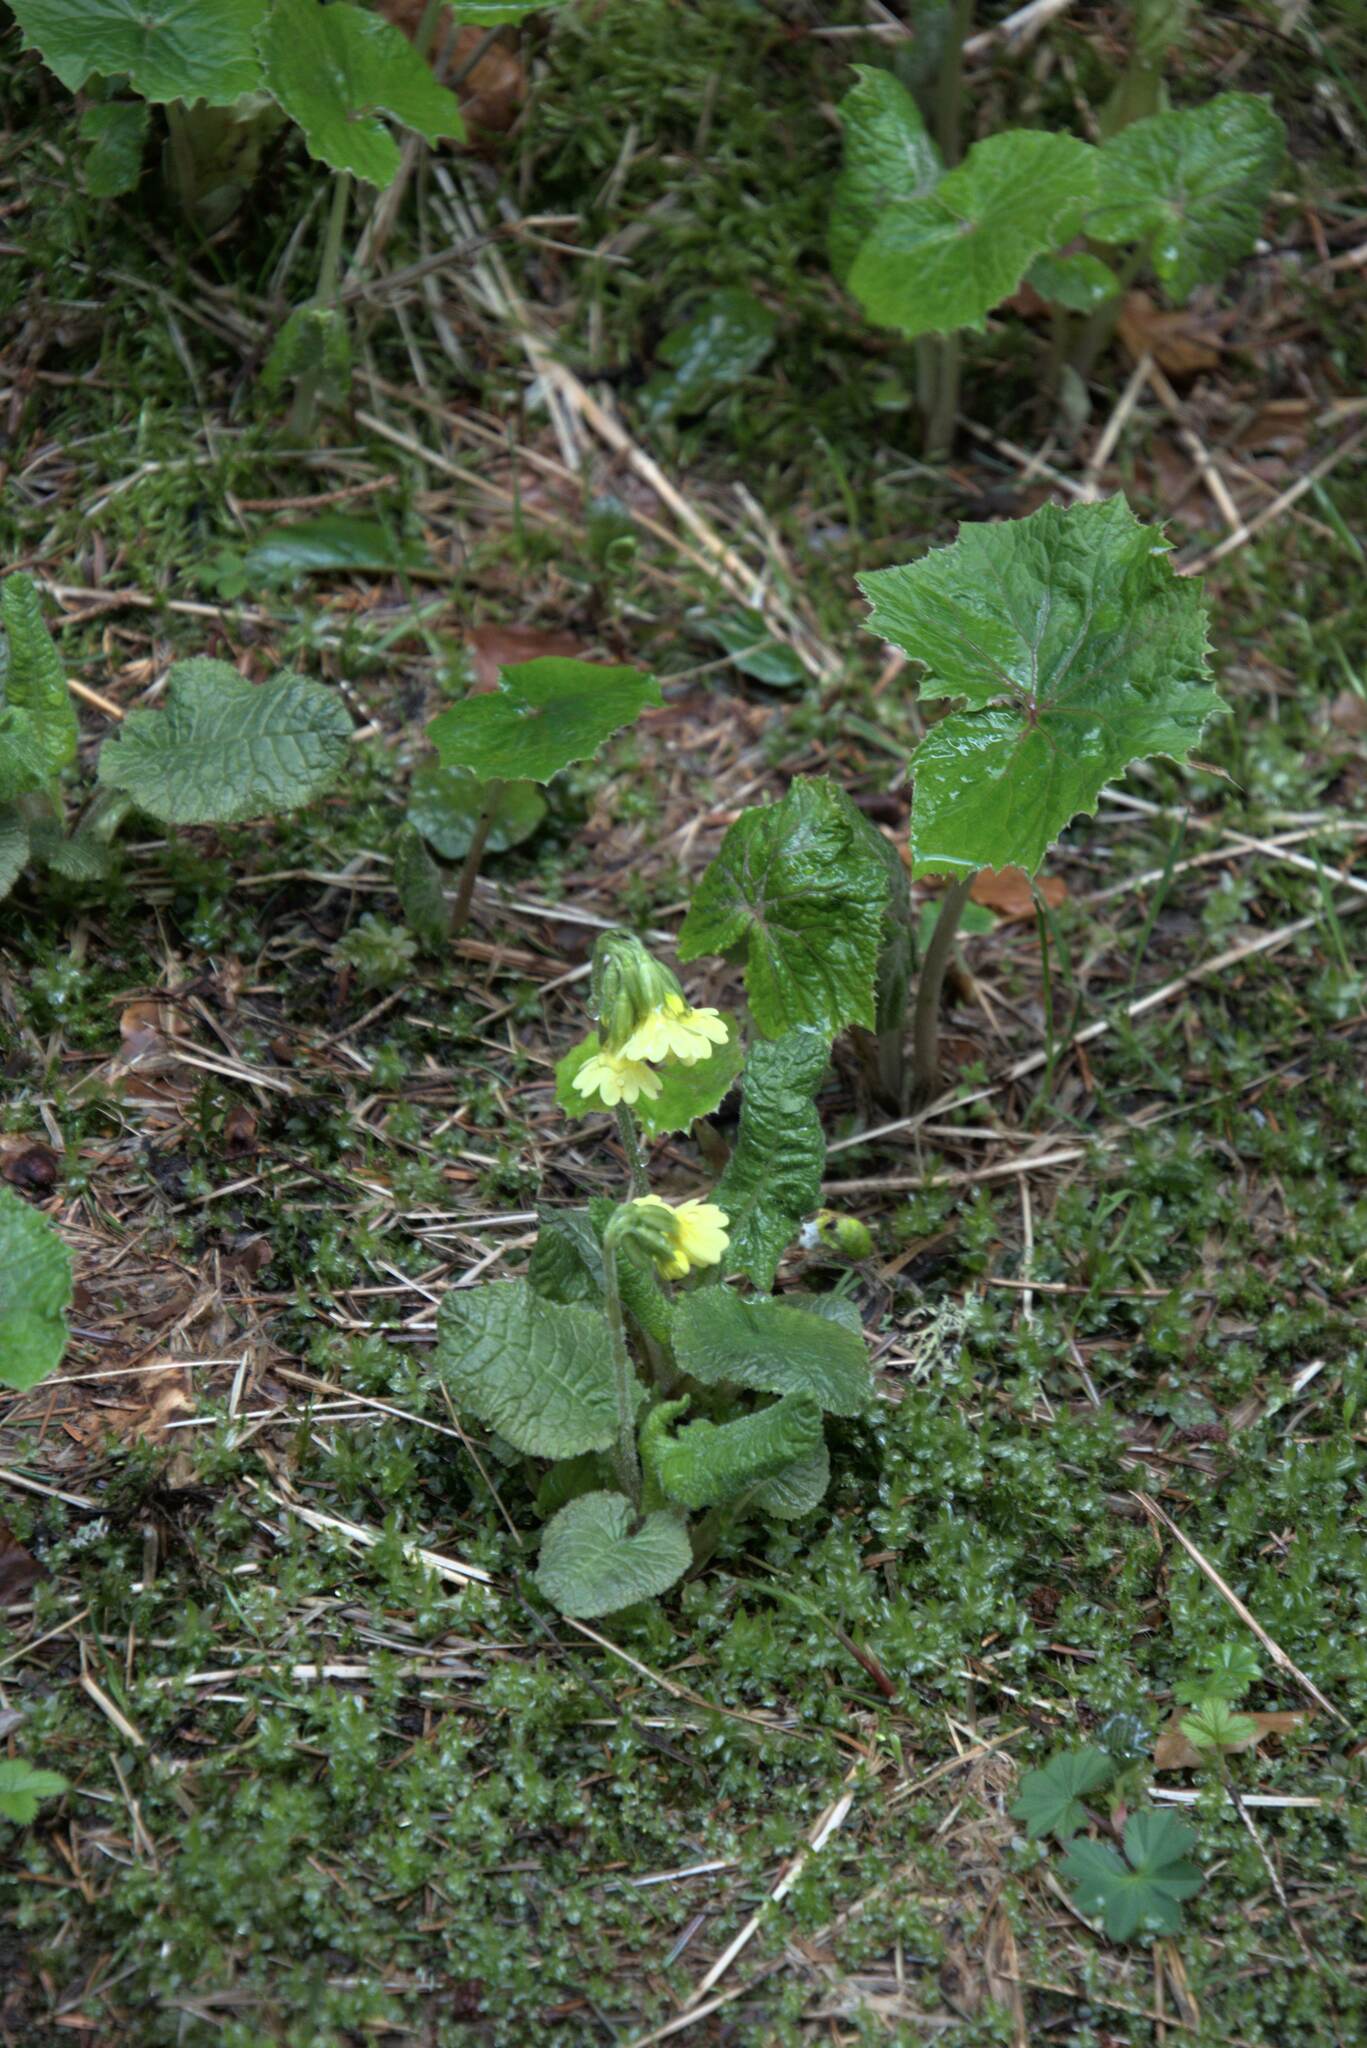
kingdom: Plantae
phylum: Tracheophyta
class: Magnoliopsida
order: Ericales
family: Primulaceae
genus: Primula
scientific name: Primula elatior
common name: Oxlip
